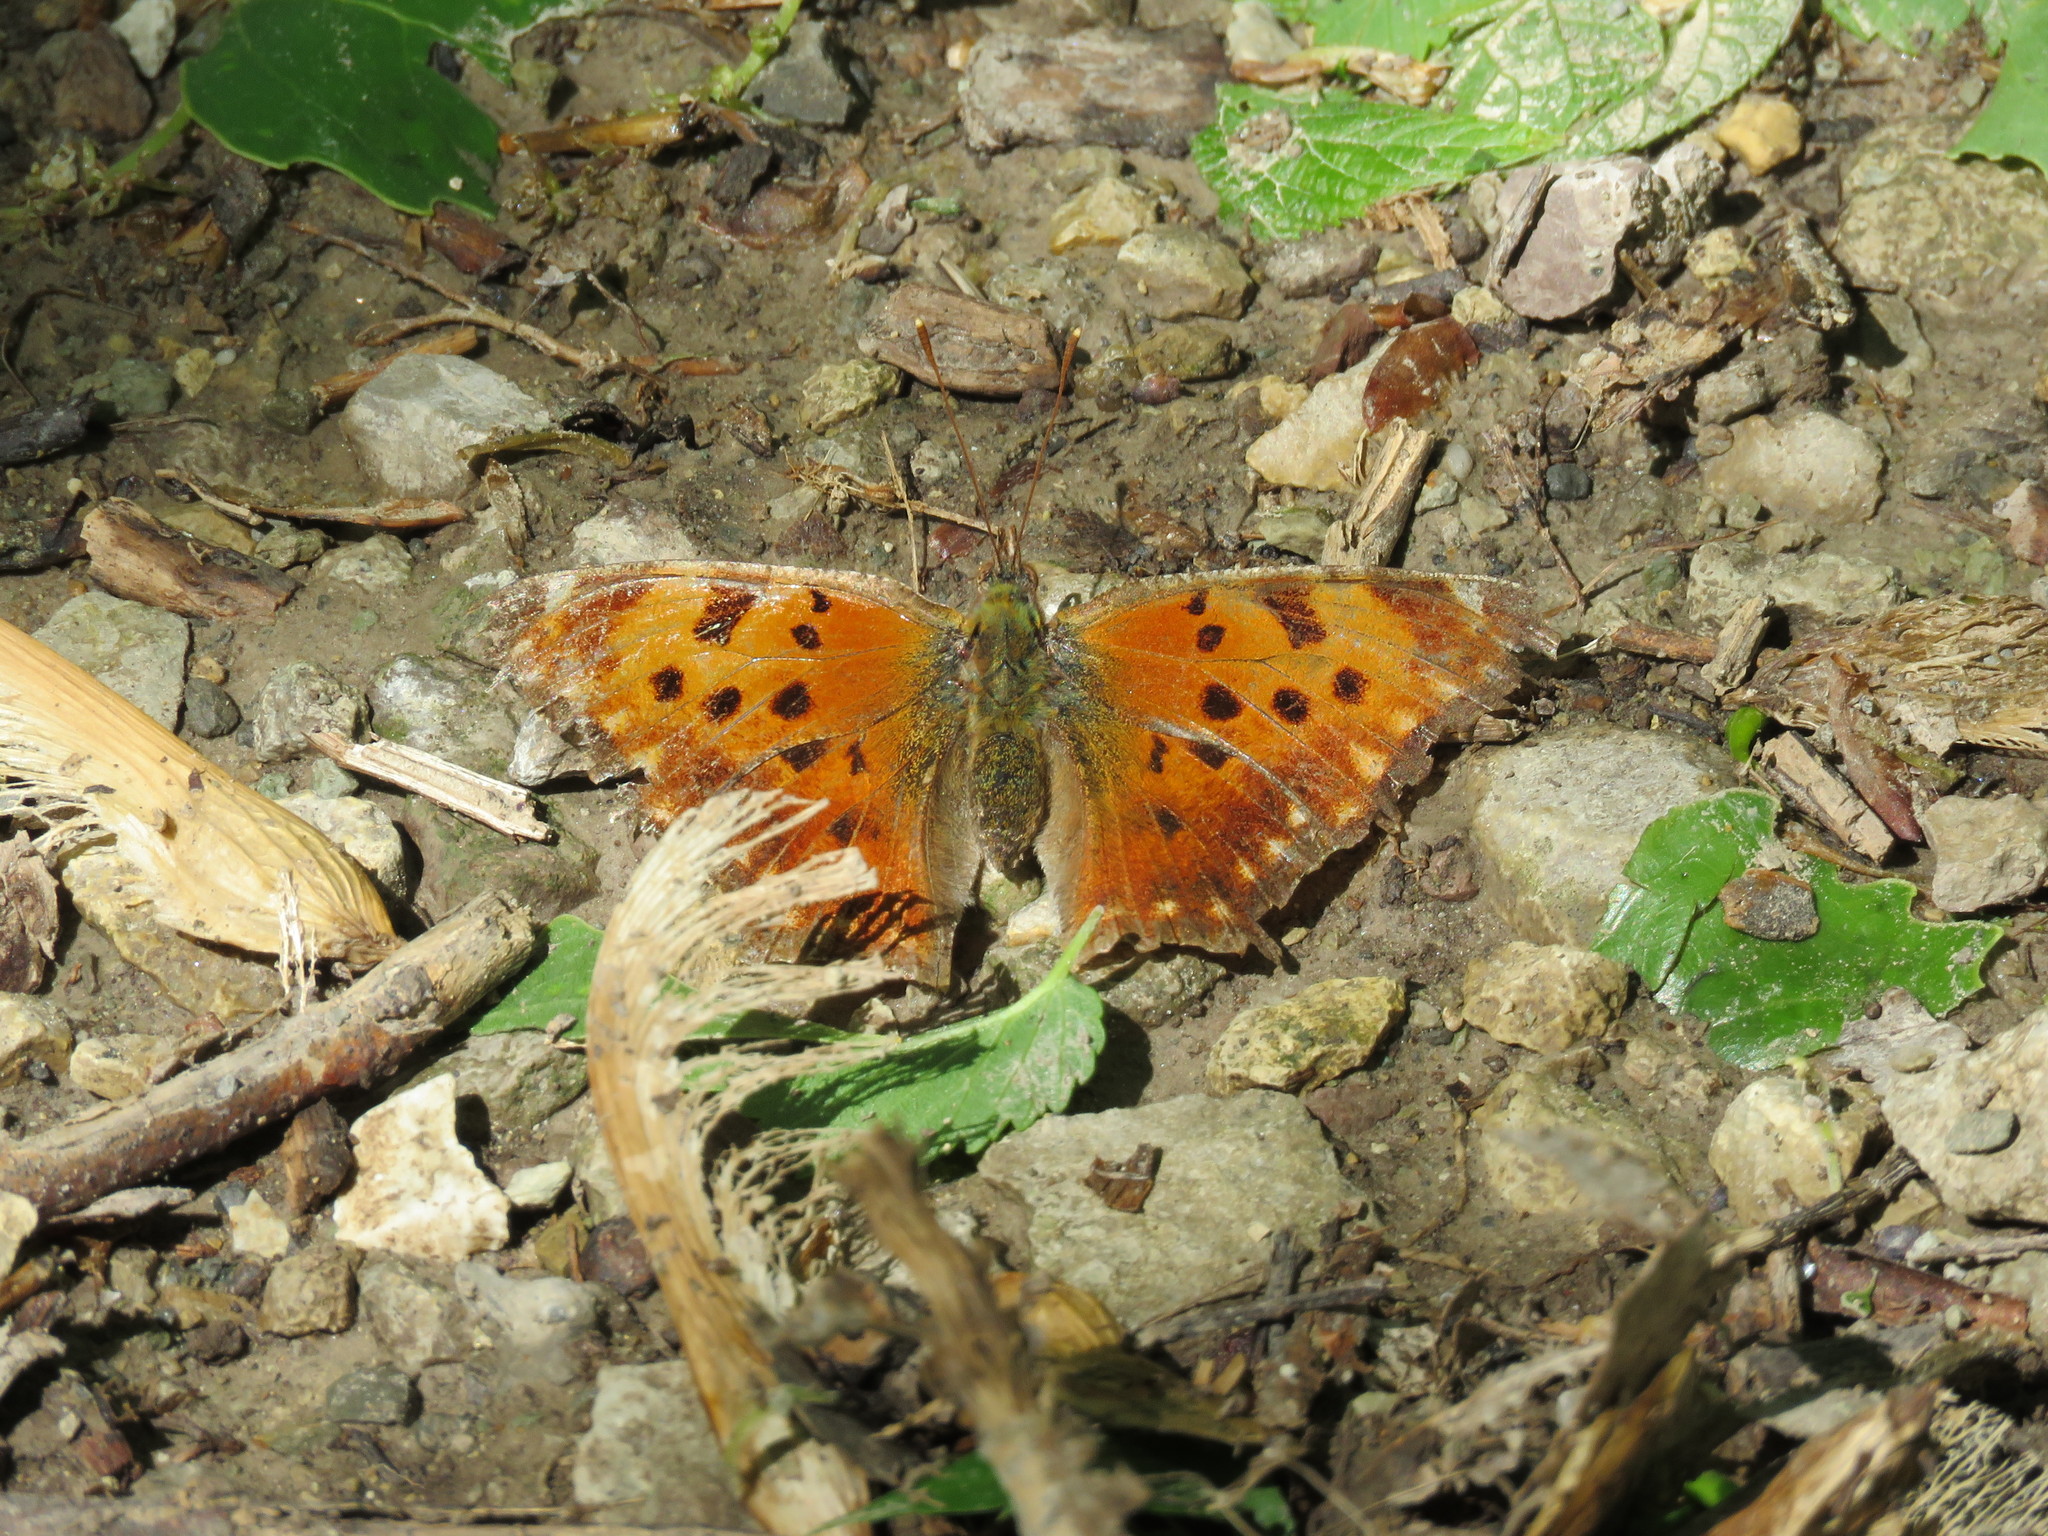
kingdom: Animalia
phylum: Arthropoda
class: Insecta
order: Lepidoptera
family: Nymphalidae
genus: Polygonia
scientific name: Polygonia comma
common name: Eastern comma
